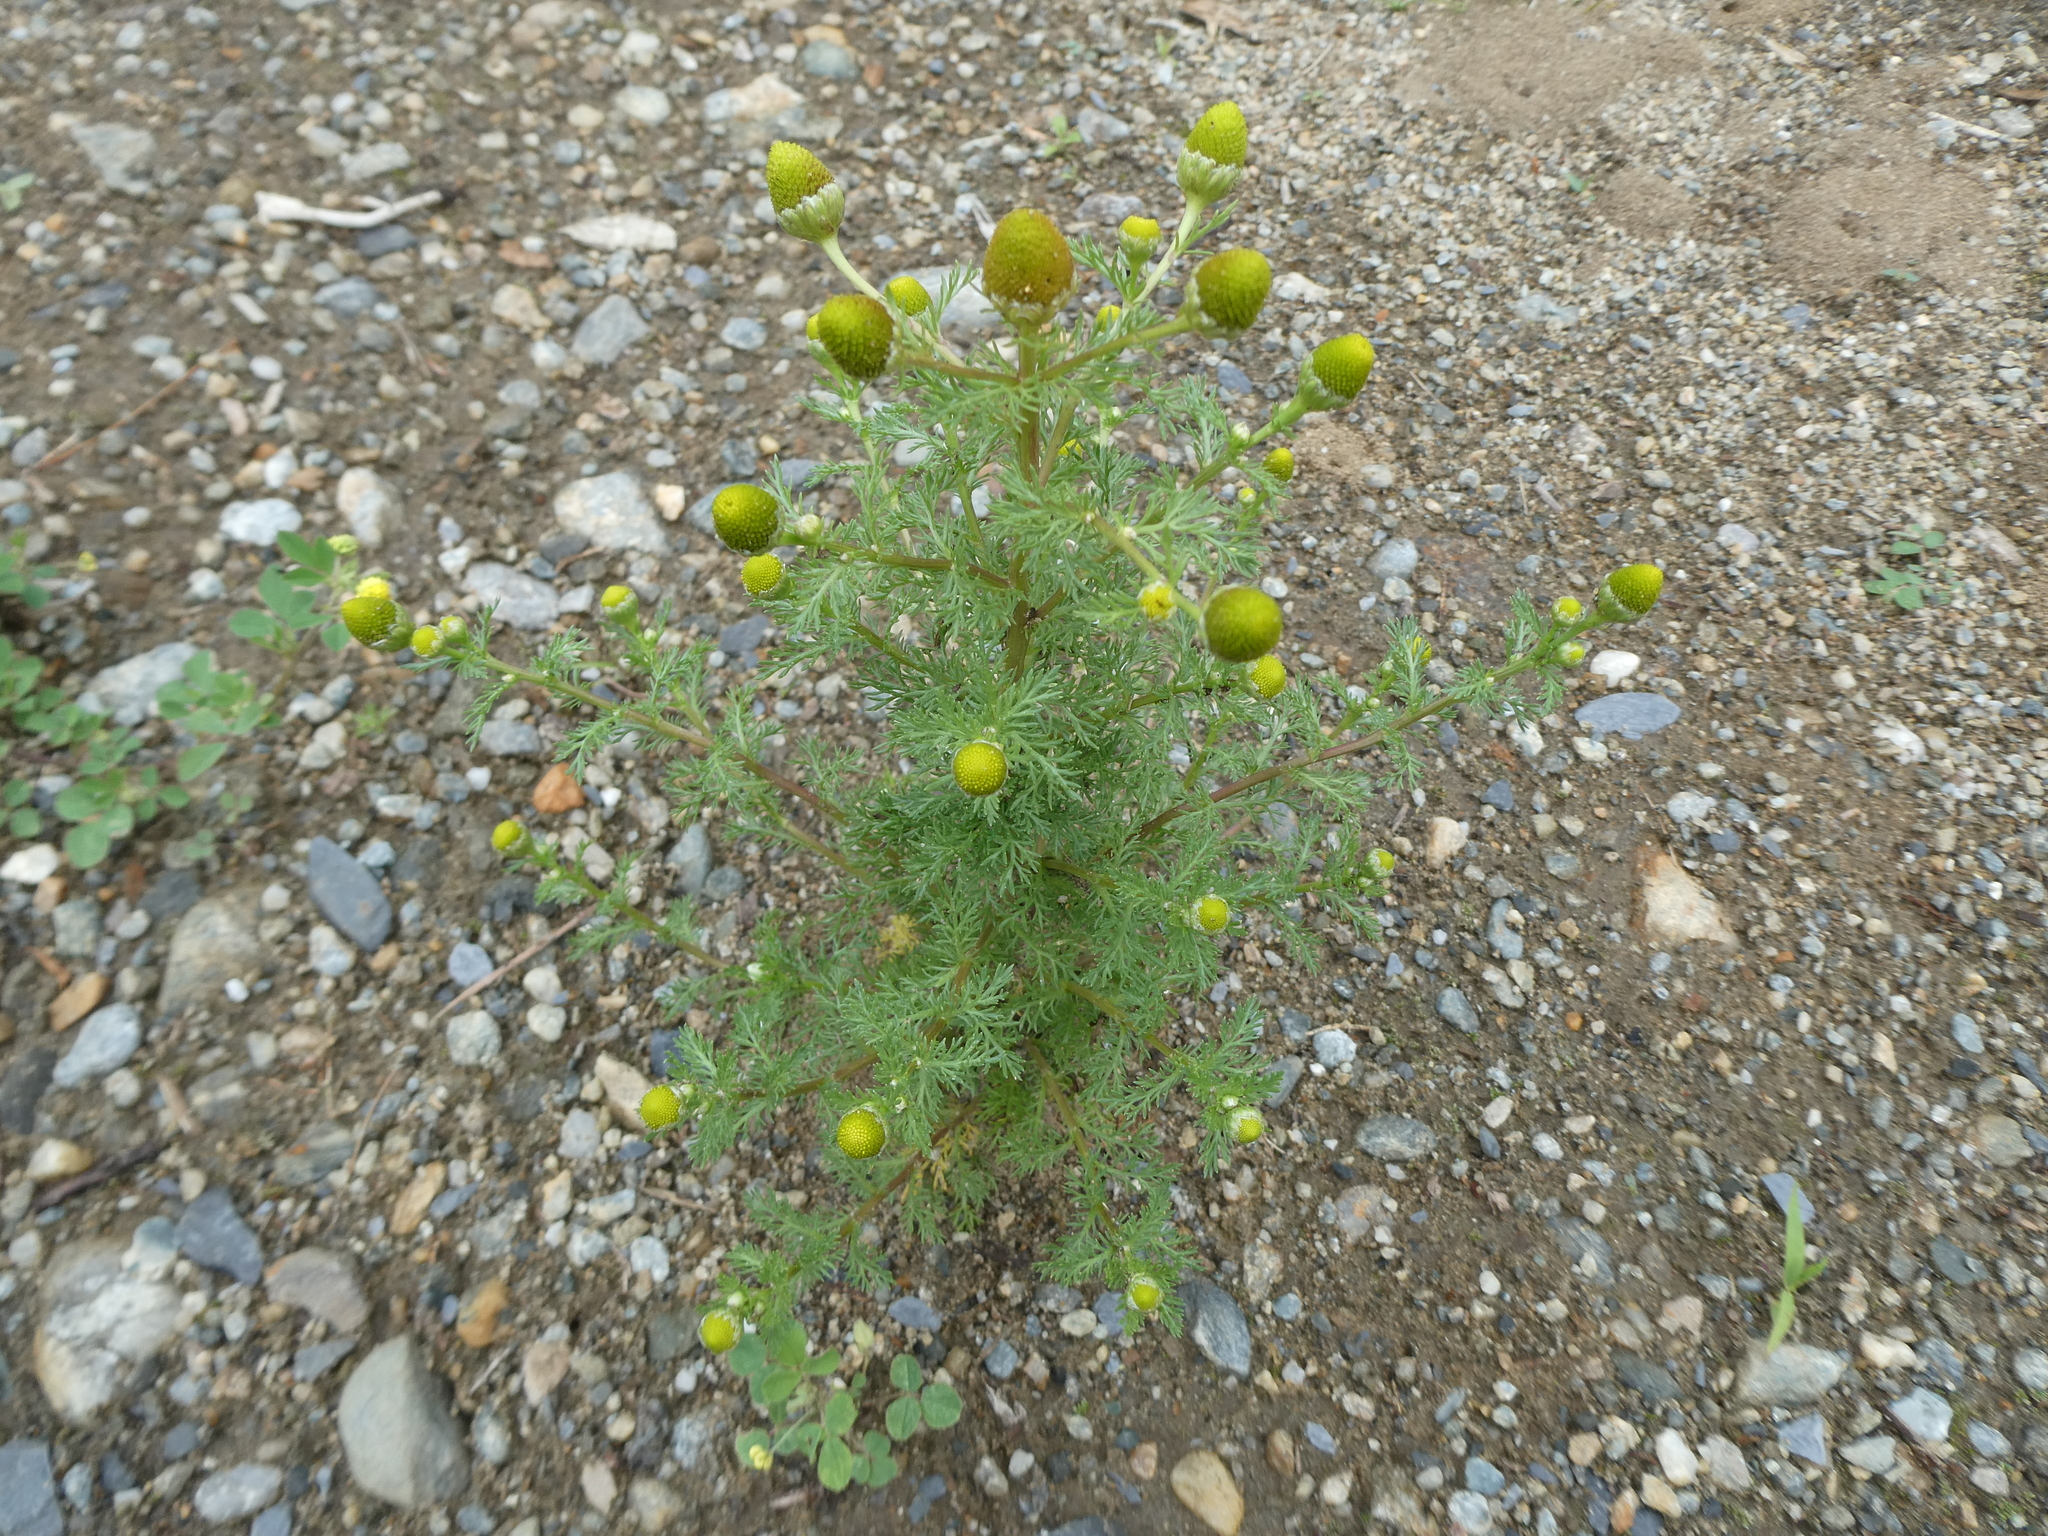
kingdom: Plantae
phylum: Tracheophyta
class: Magnoliopsida
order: Asterales
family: Asteraceae
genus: Matricaria
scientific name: Matricaria discoidea
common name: Disc mayweed
